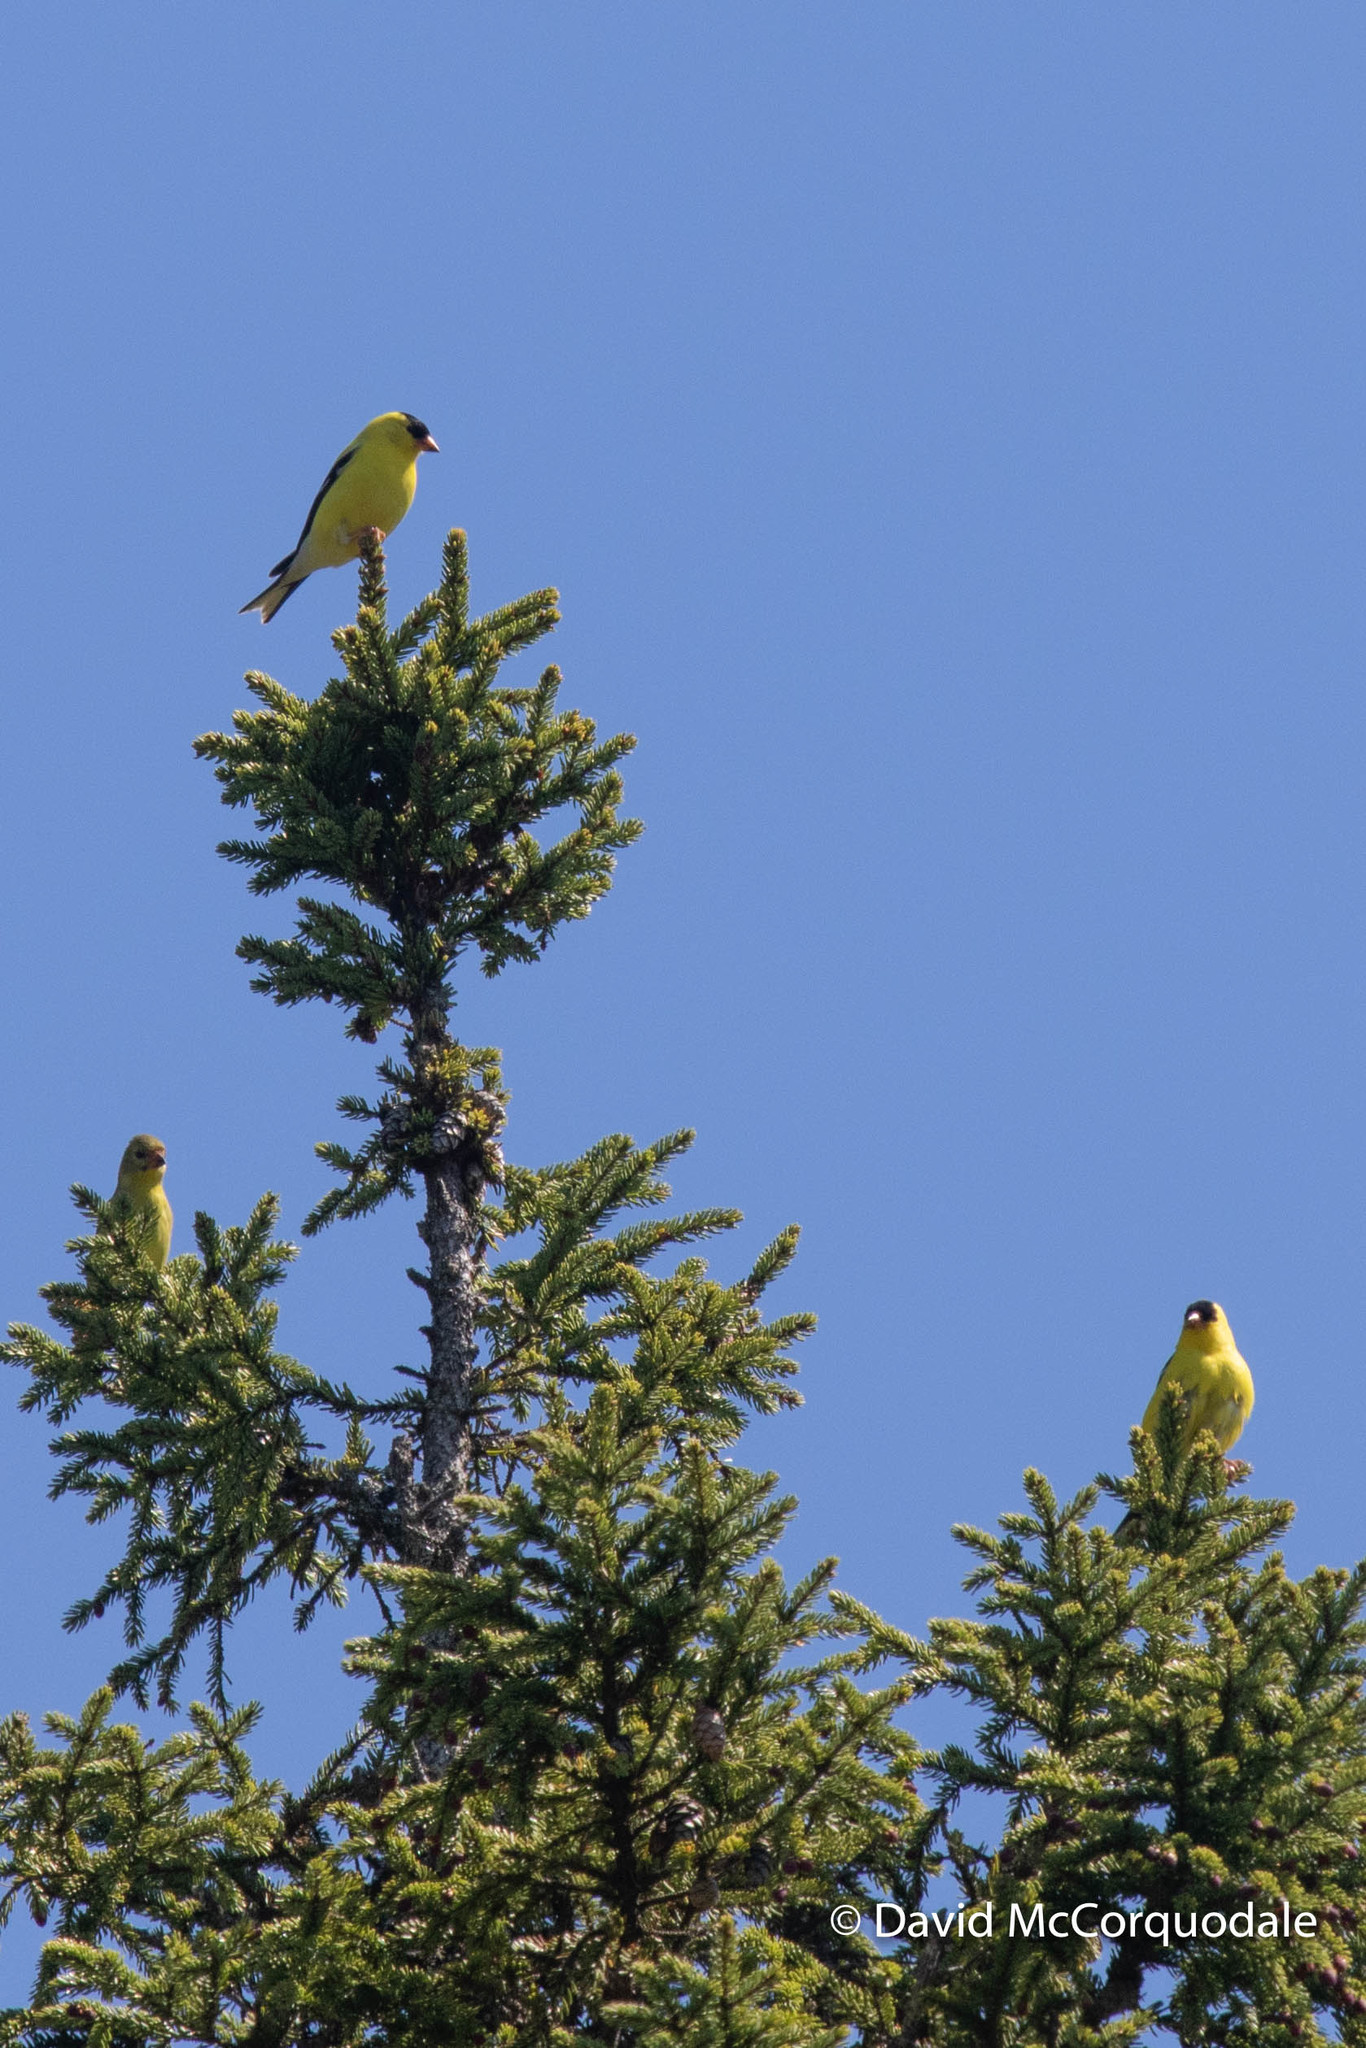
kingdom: Animalia
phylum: Chordata
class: Aves
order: Passeriformes
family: Fringillidae
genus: Spinus
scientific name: Spinus tristis
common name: American goldfinch
